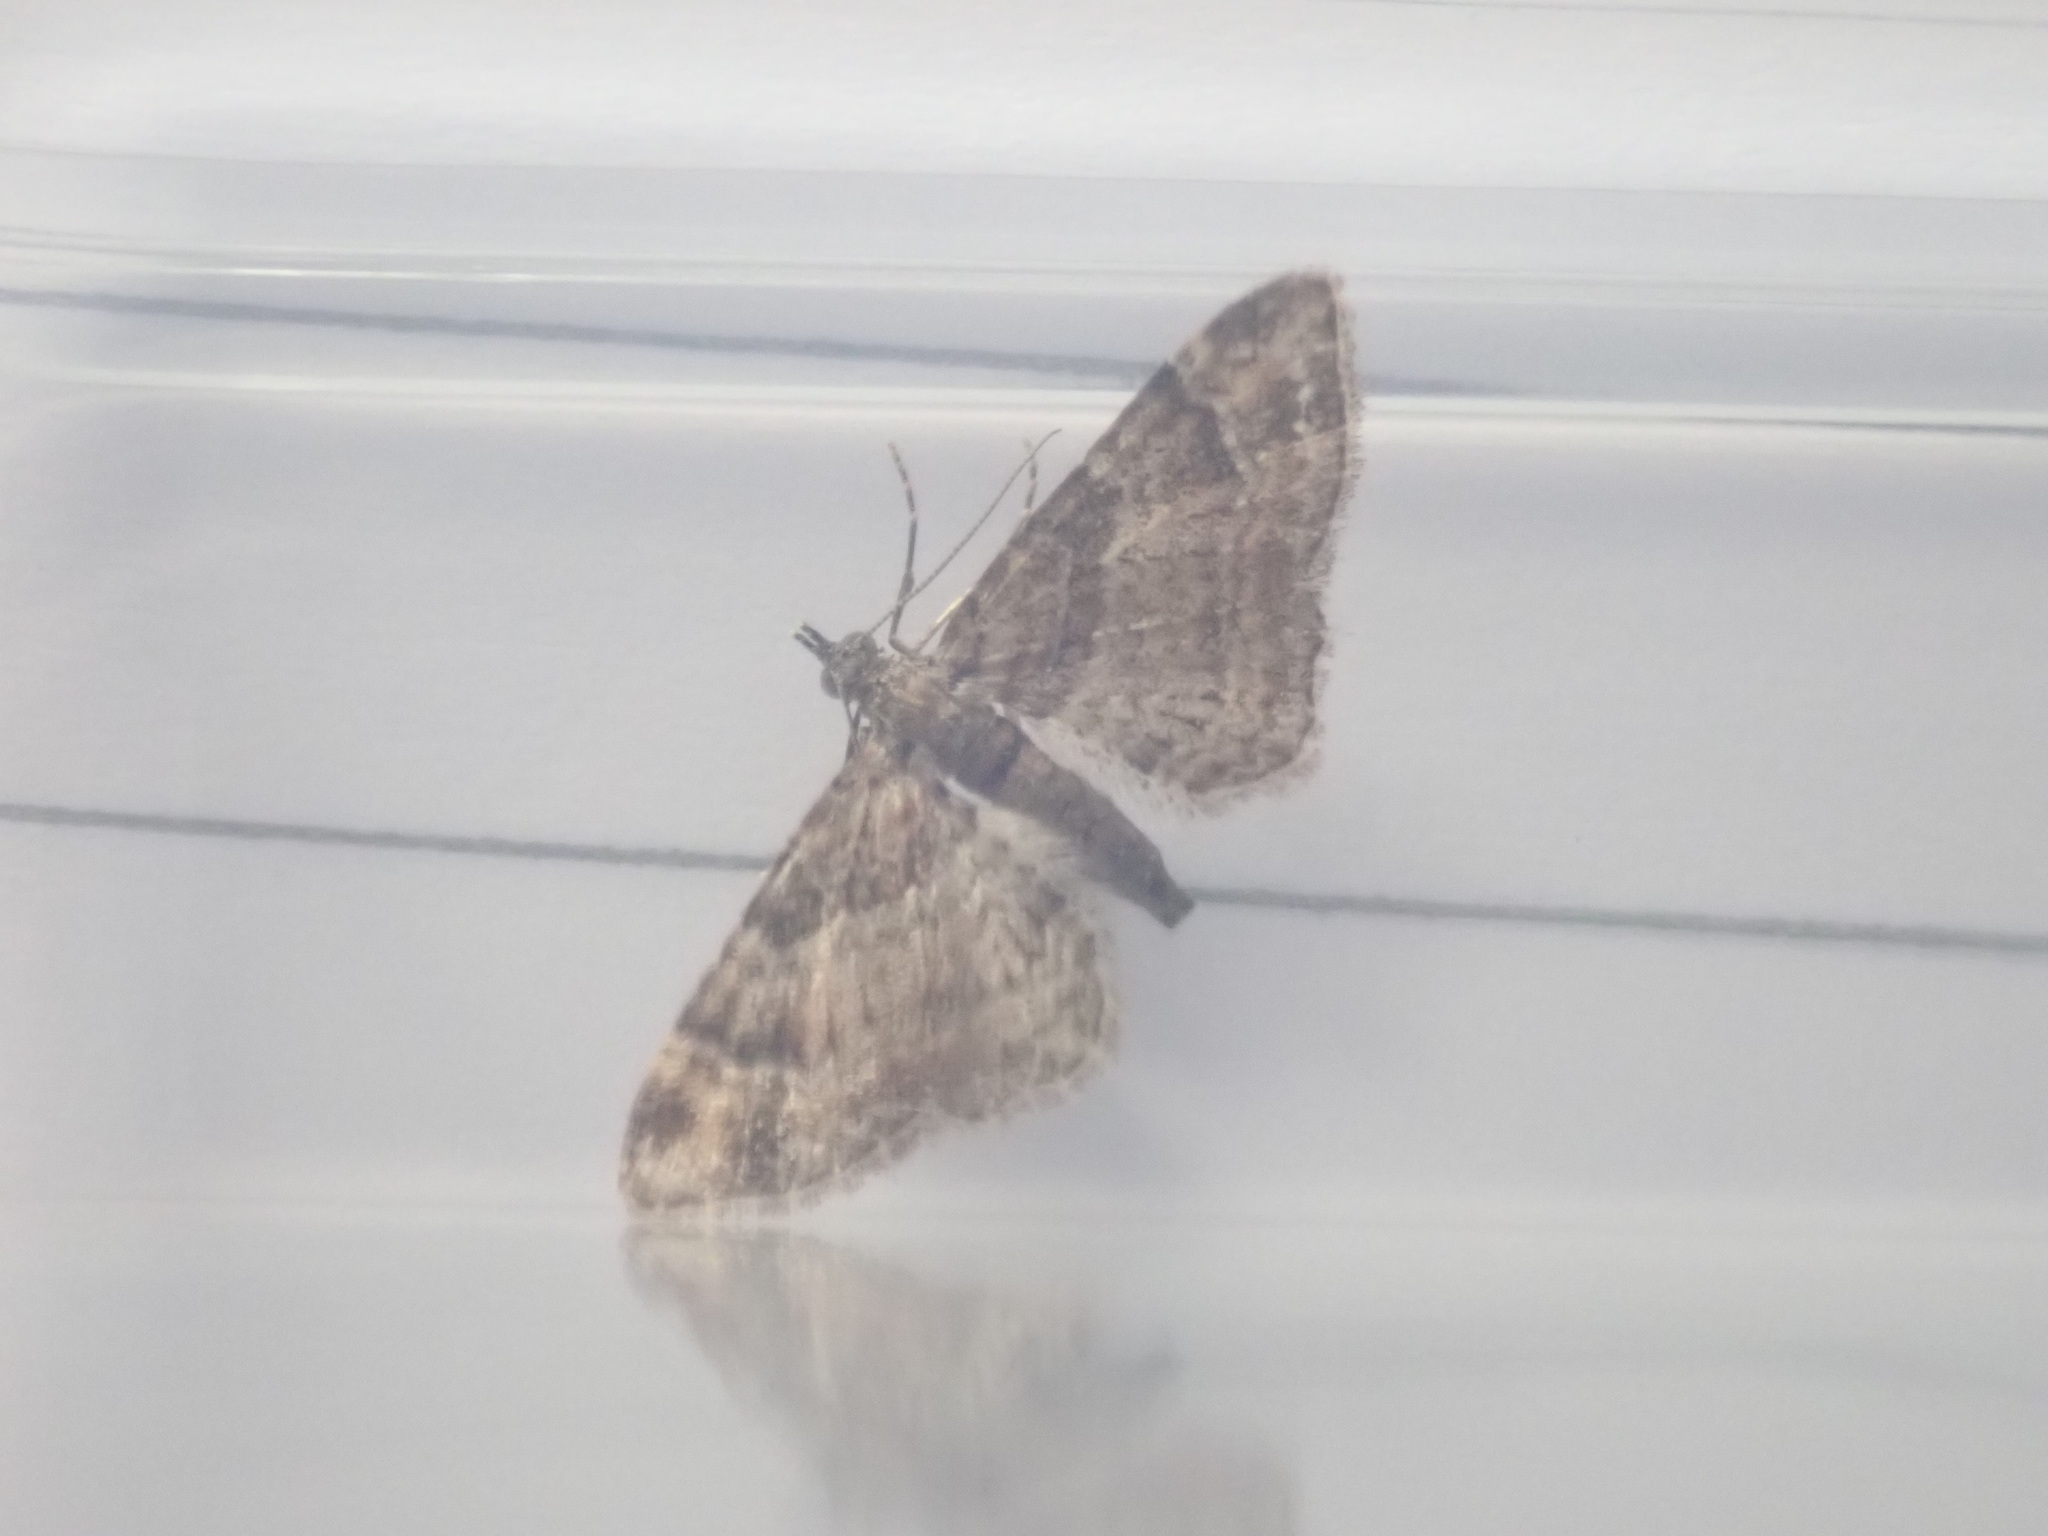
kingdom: Animalia
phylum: Arthropoda
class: Insecta
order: Lepidoptera
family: Geometridae
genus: Gymnoscelis
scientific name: Gymnoscelis rufifasciata
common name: Double-striped pug
